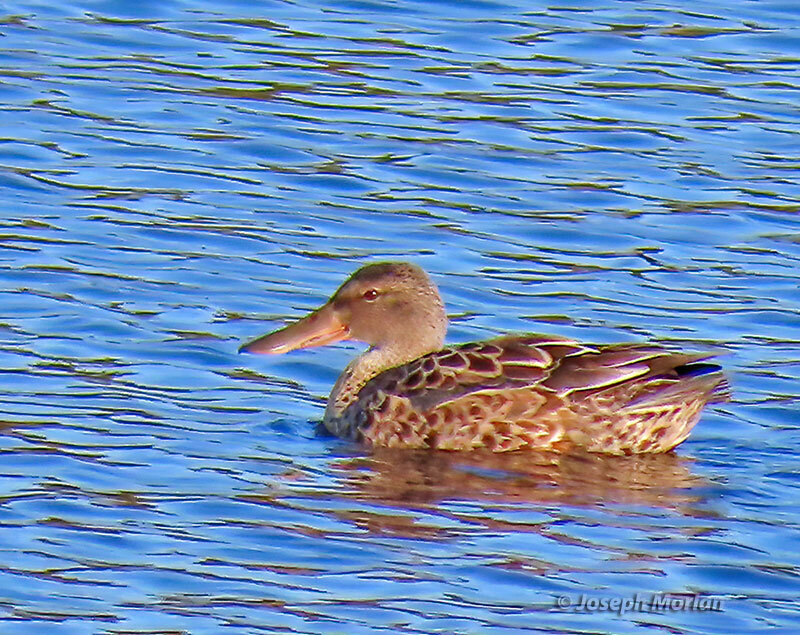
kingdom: Animalia
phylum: Chordata
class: Aves
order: Anseriformes
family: Anatidae
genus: Spatula
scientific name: Spatula clypeata
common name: Northern shoveler
